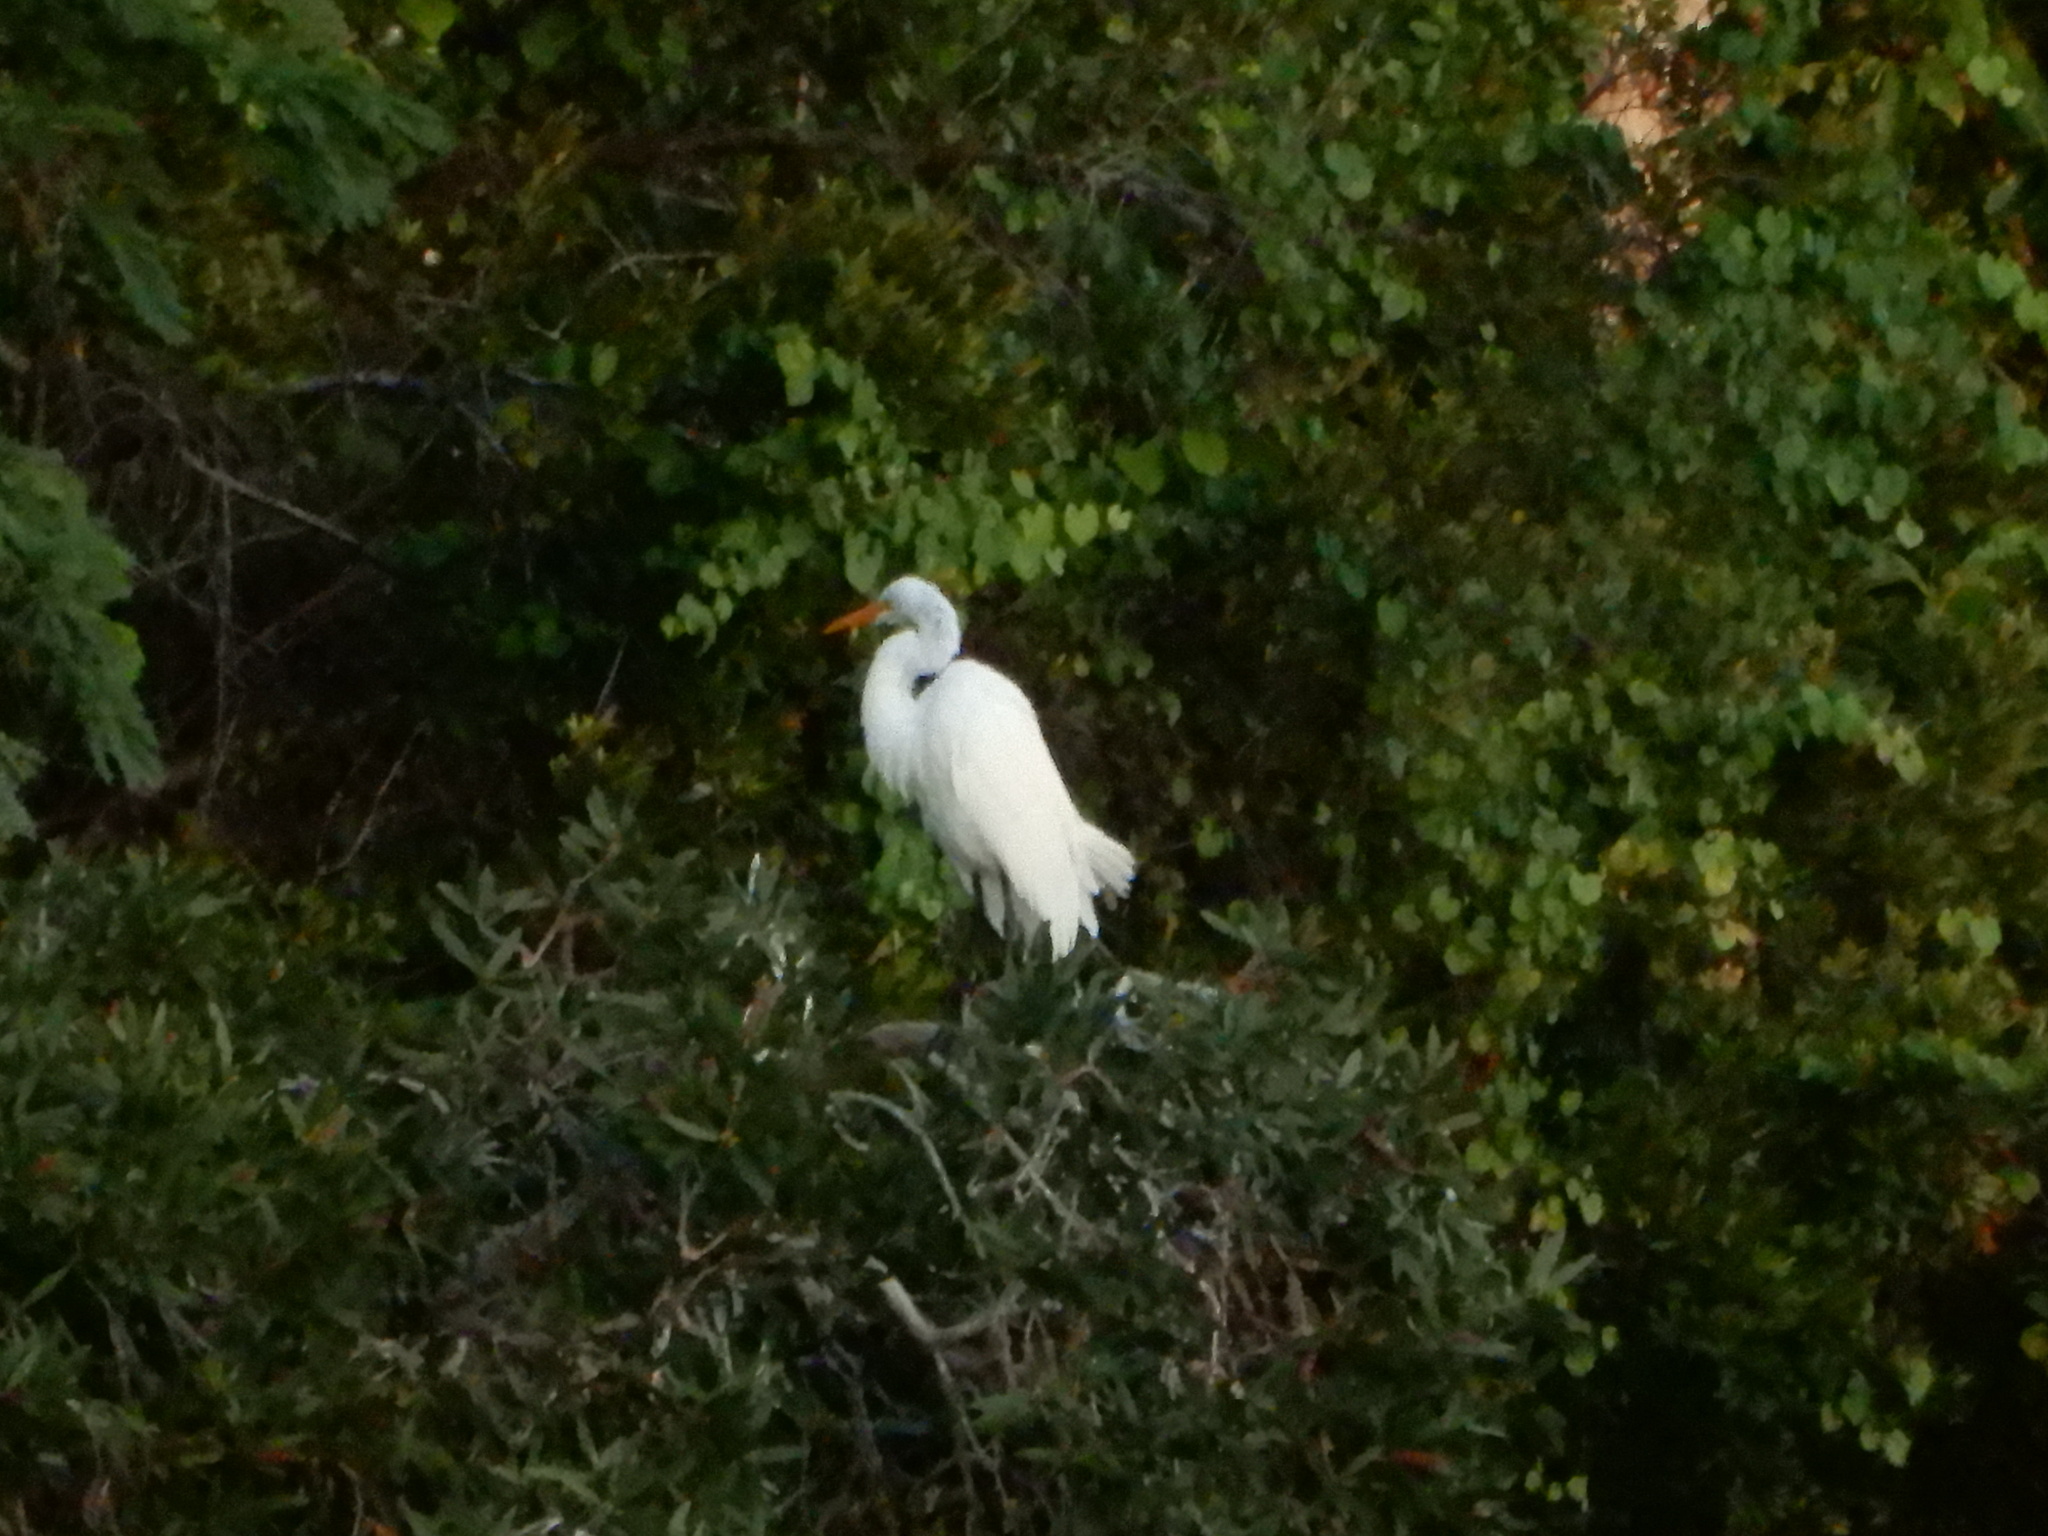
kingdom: Animalia
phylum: Chordata
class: Aves
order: Pelecaniformes
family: Ardeidae
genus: Ardea
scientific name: Ardea alba
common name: Great egret
